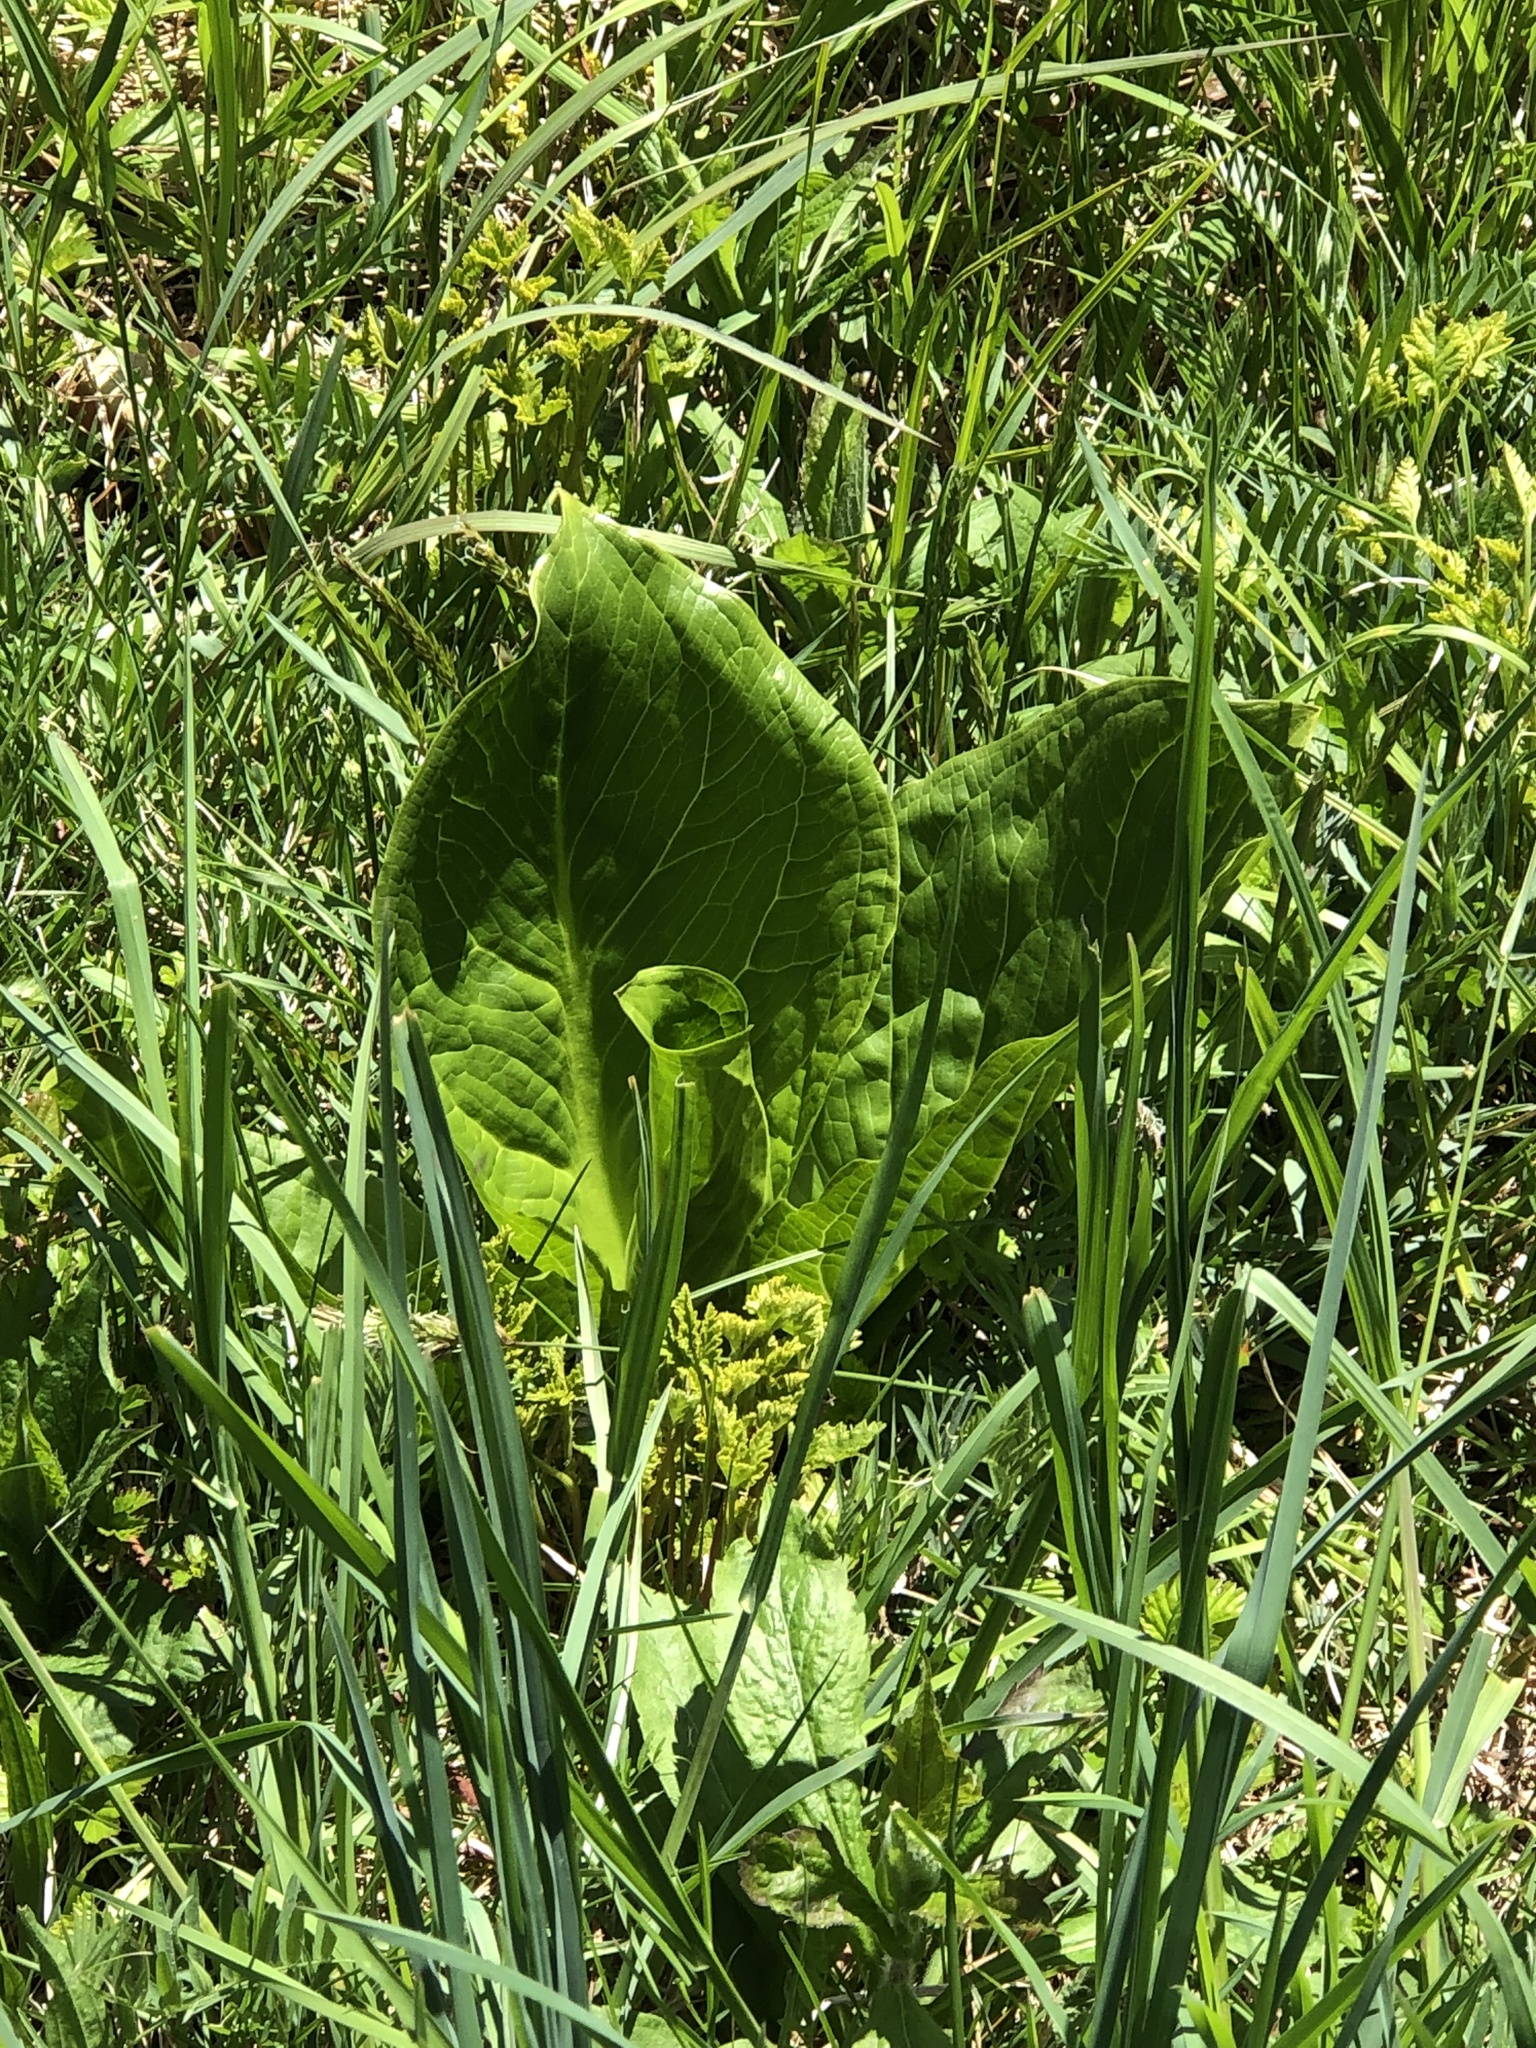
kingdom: Plantae
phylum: Tracheophyta
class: Liliopsida
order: Alismatales
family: Araceae
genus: Symplocarpus
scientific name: Symplocarpus foetidus
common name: Eastern skunk cabbage
